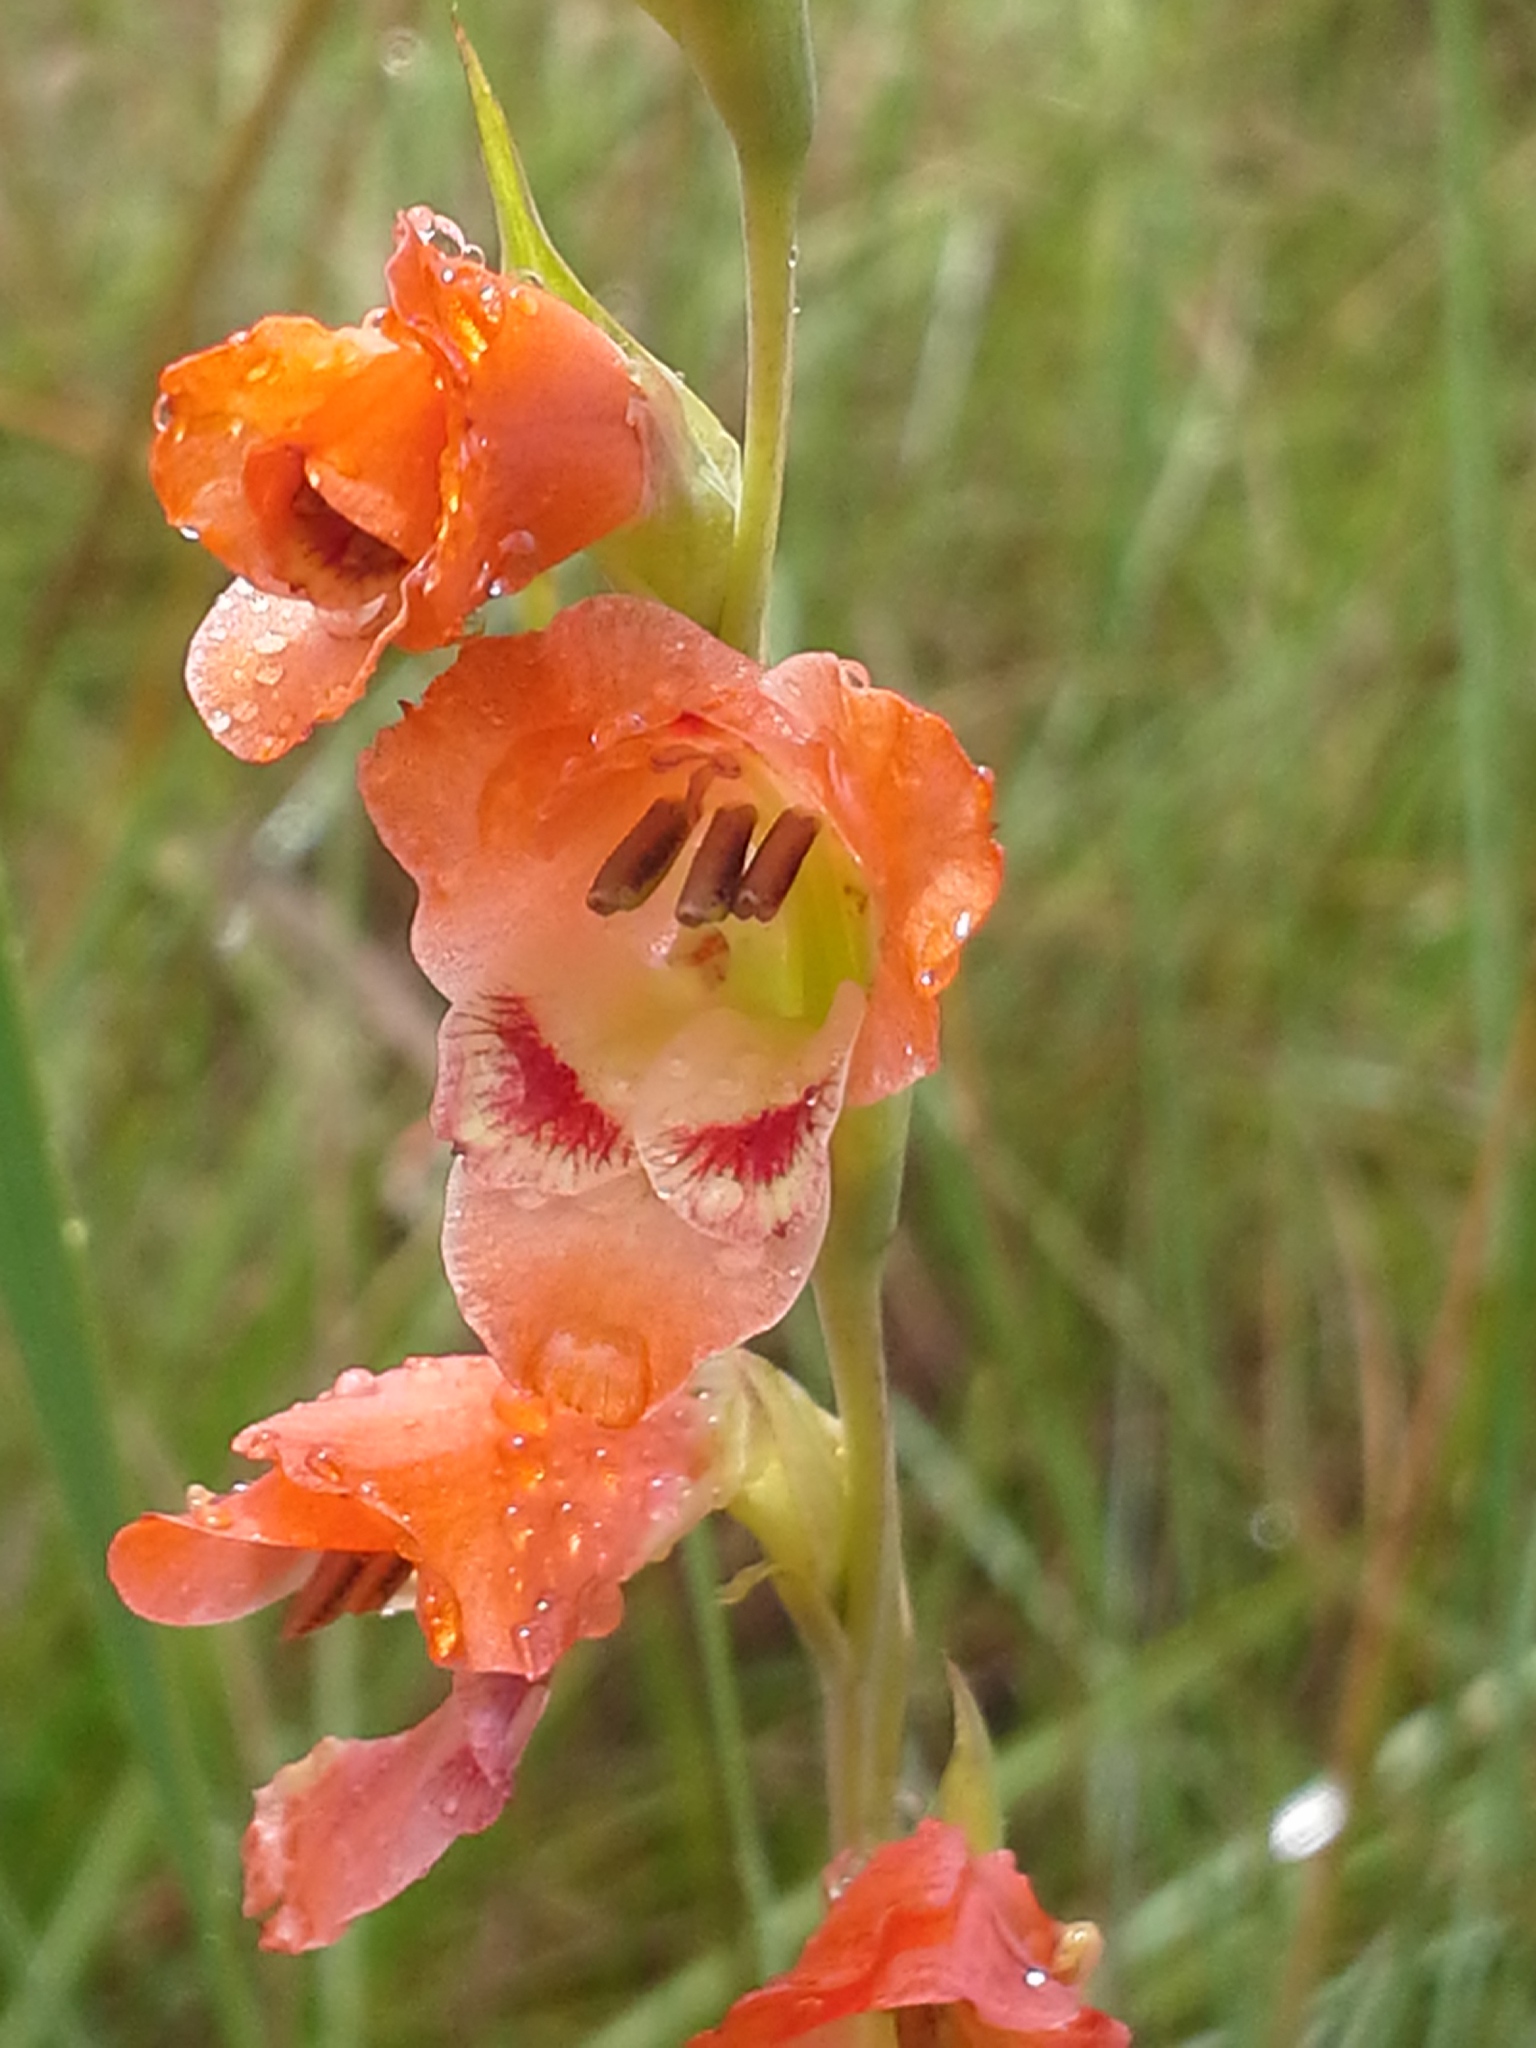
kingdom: Plantae
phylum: Tracheophyta
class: Liliopsida
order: Asparagales
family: Iridaceae
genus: Gladiolus
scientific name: Gladiolus crassifolius
